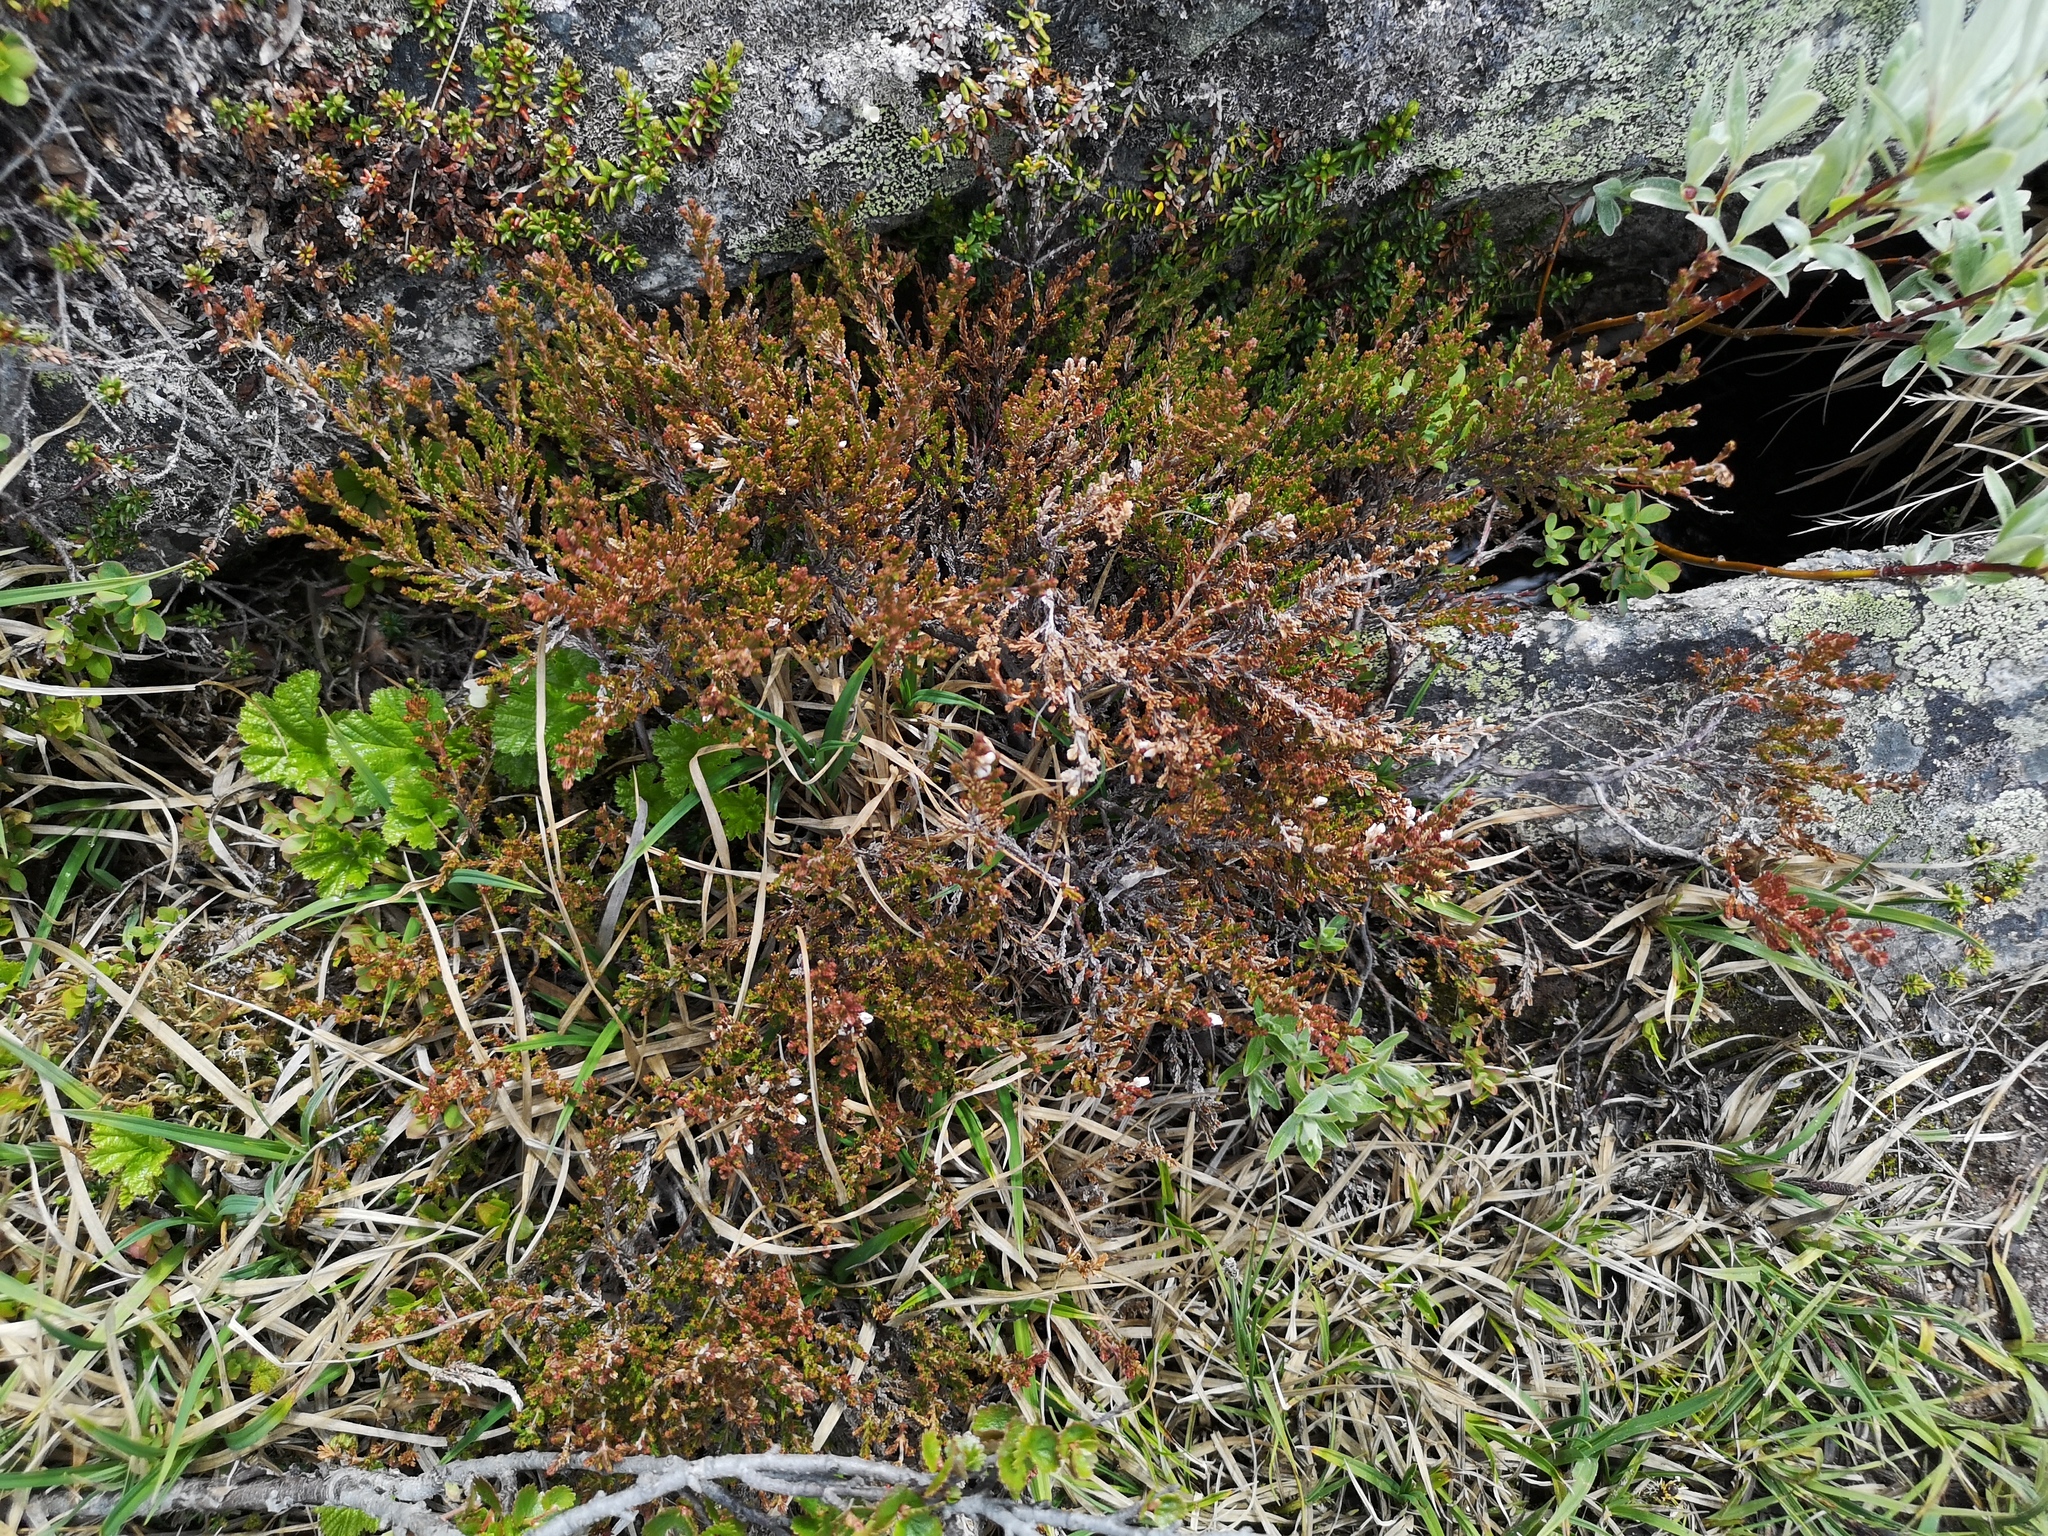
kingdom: Plantae
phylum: Tracheophyta
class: Magnoliopsida
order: Ericales
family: Ericaceae
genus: Calluna
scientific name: Calluna vulgaris
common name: Heather
